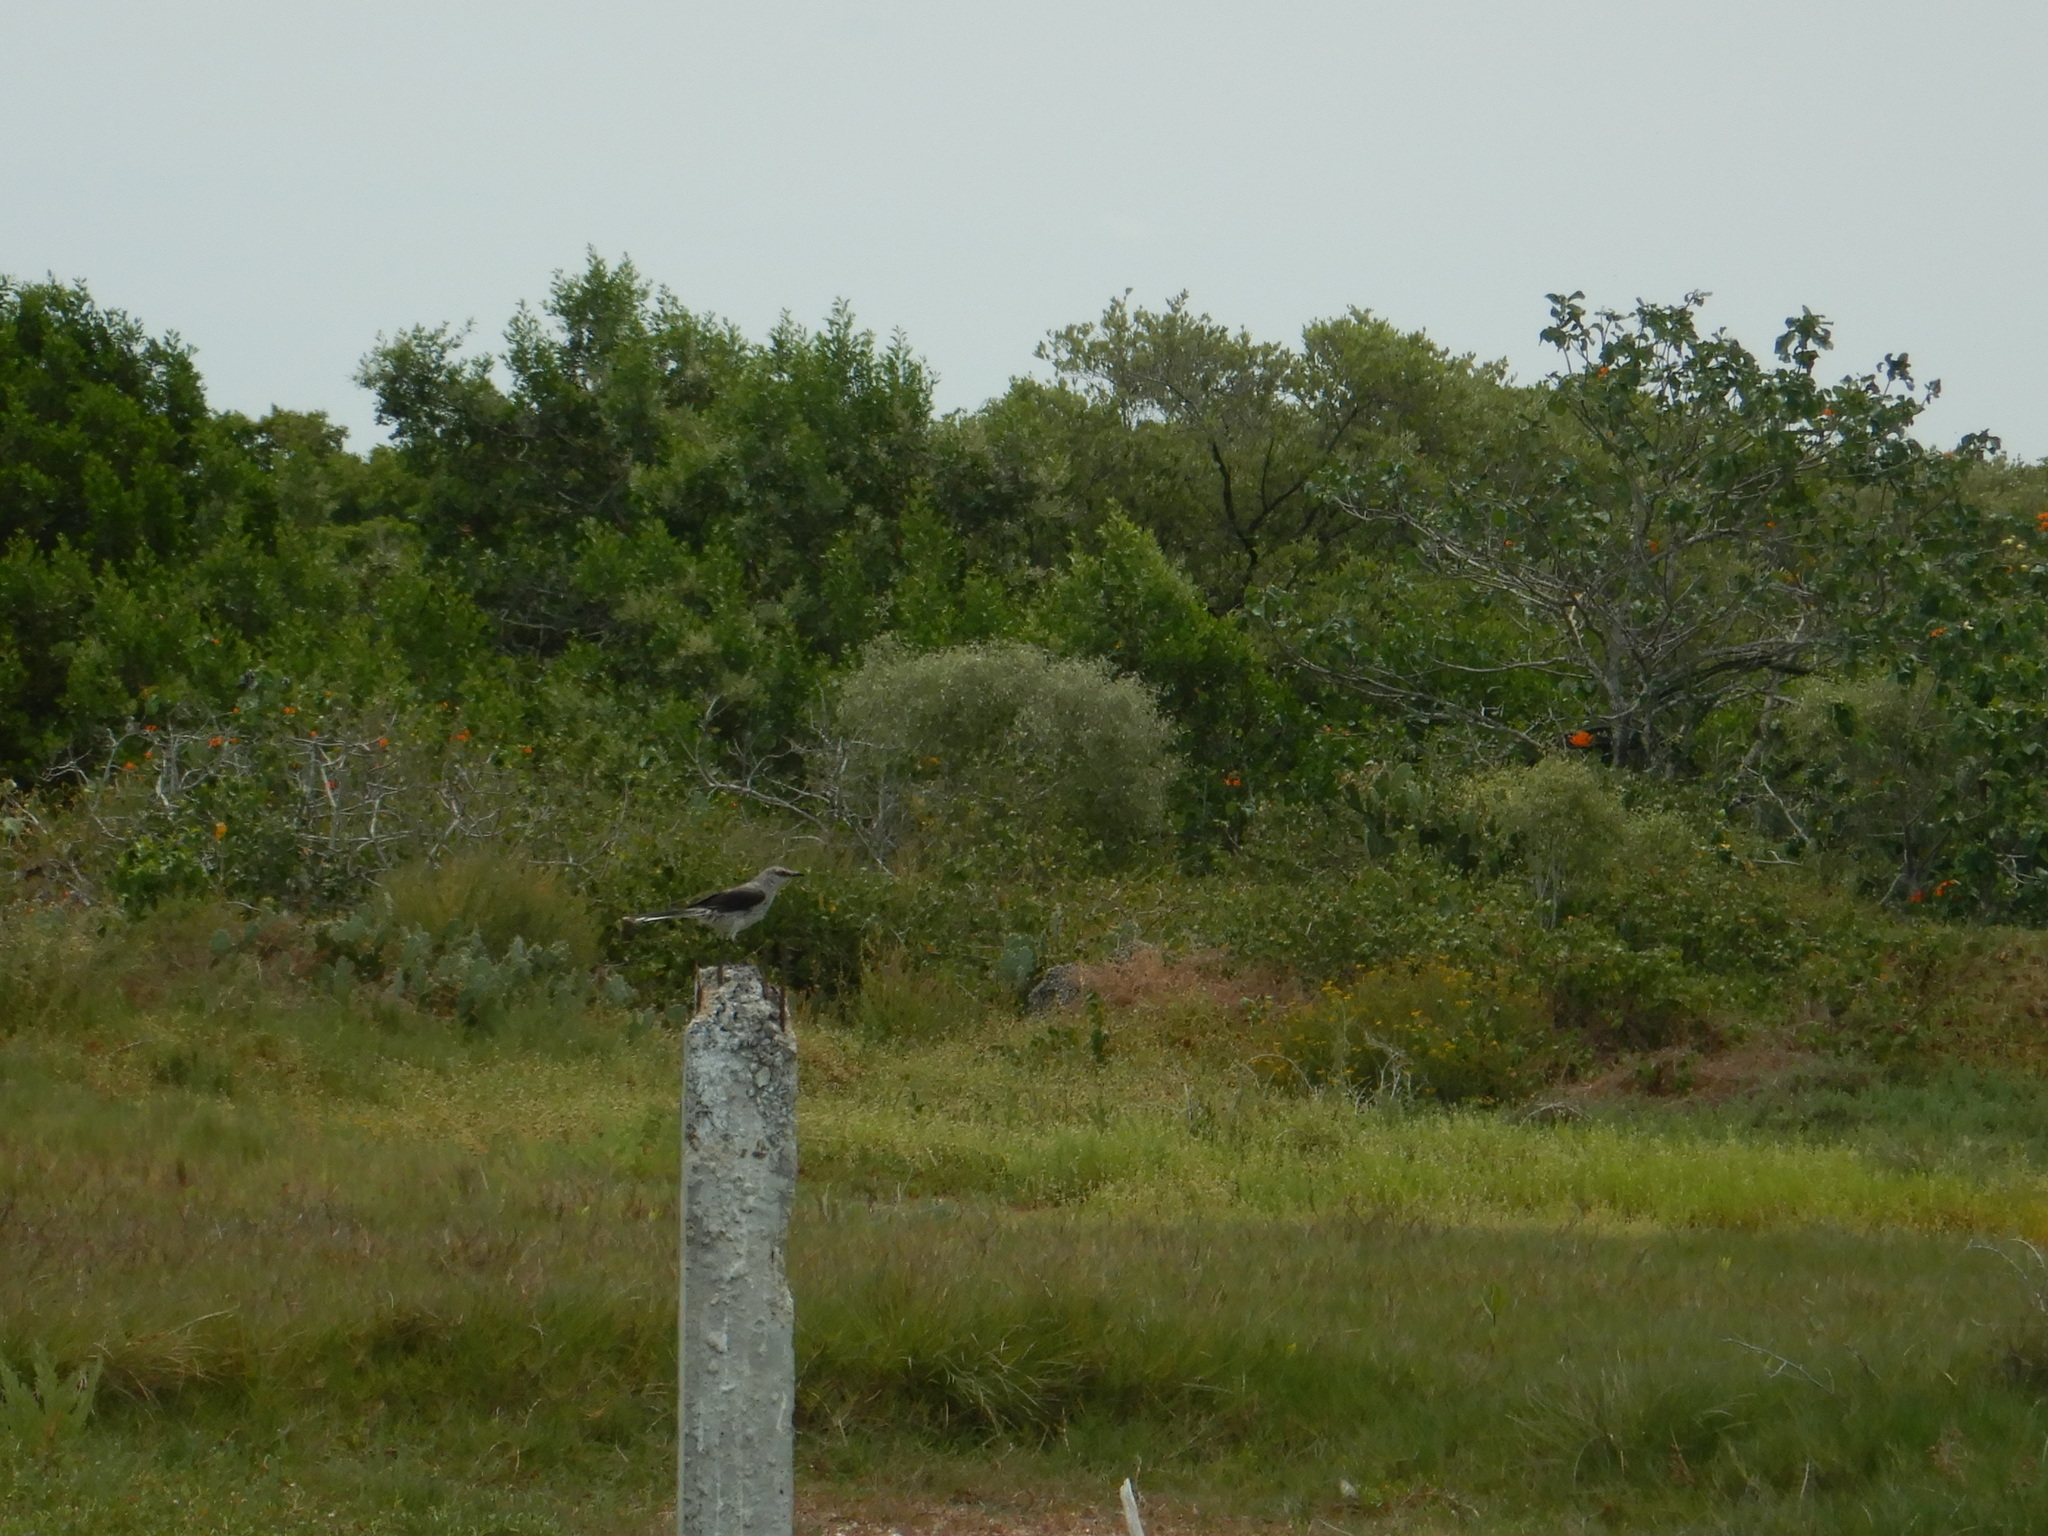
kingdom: Animalia
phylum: Chordata
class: Aves
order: Passeriformes
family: Mimidae
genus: Mimus
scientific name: Mimus gilvus
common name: Tropical mockingbird
